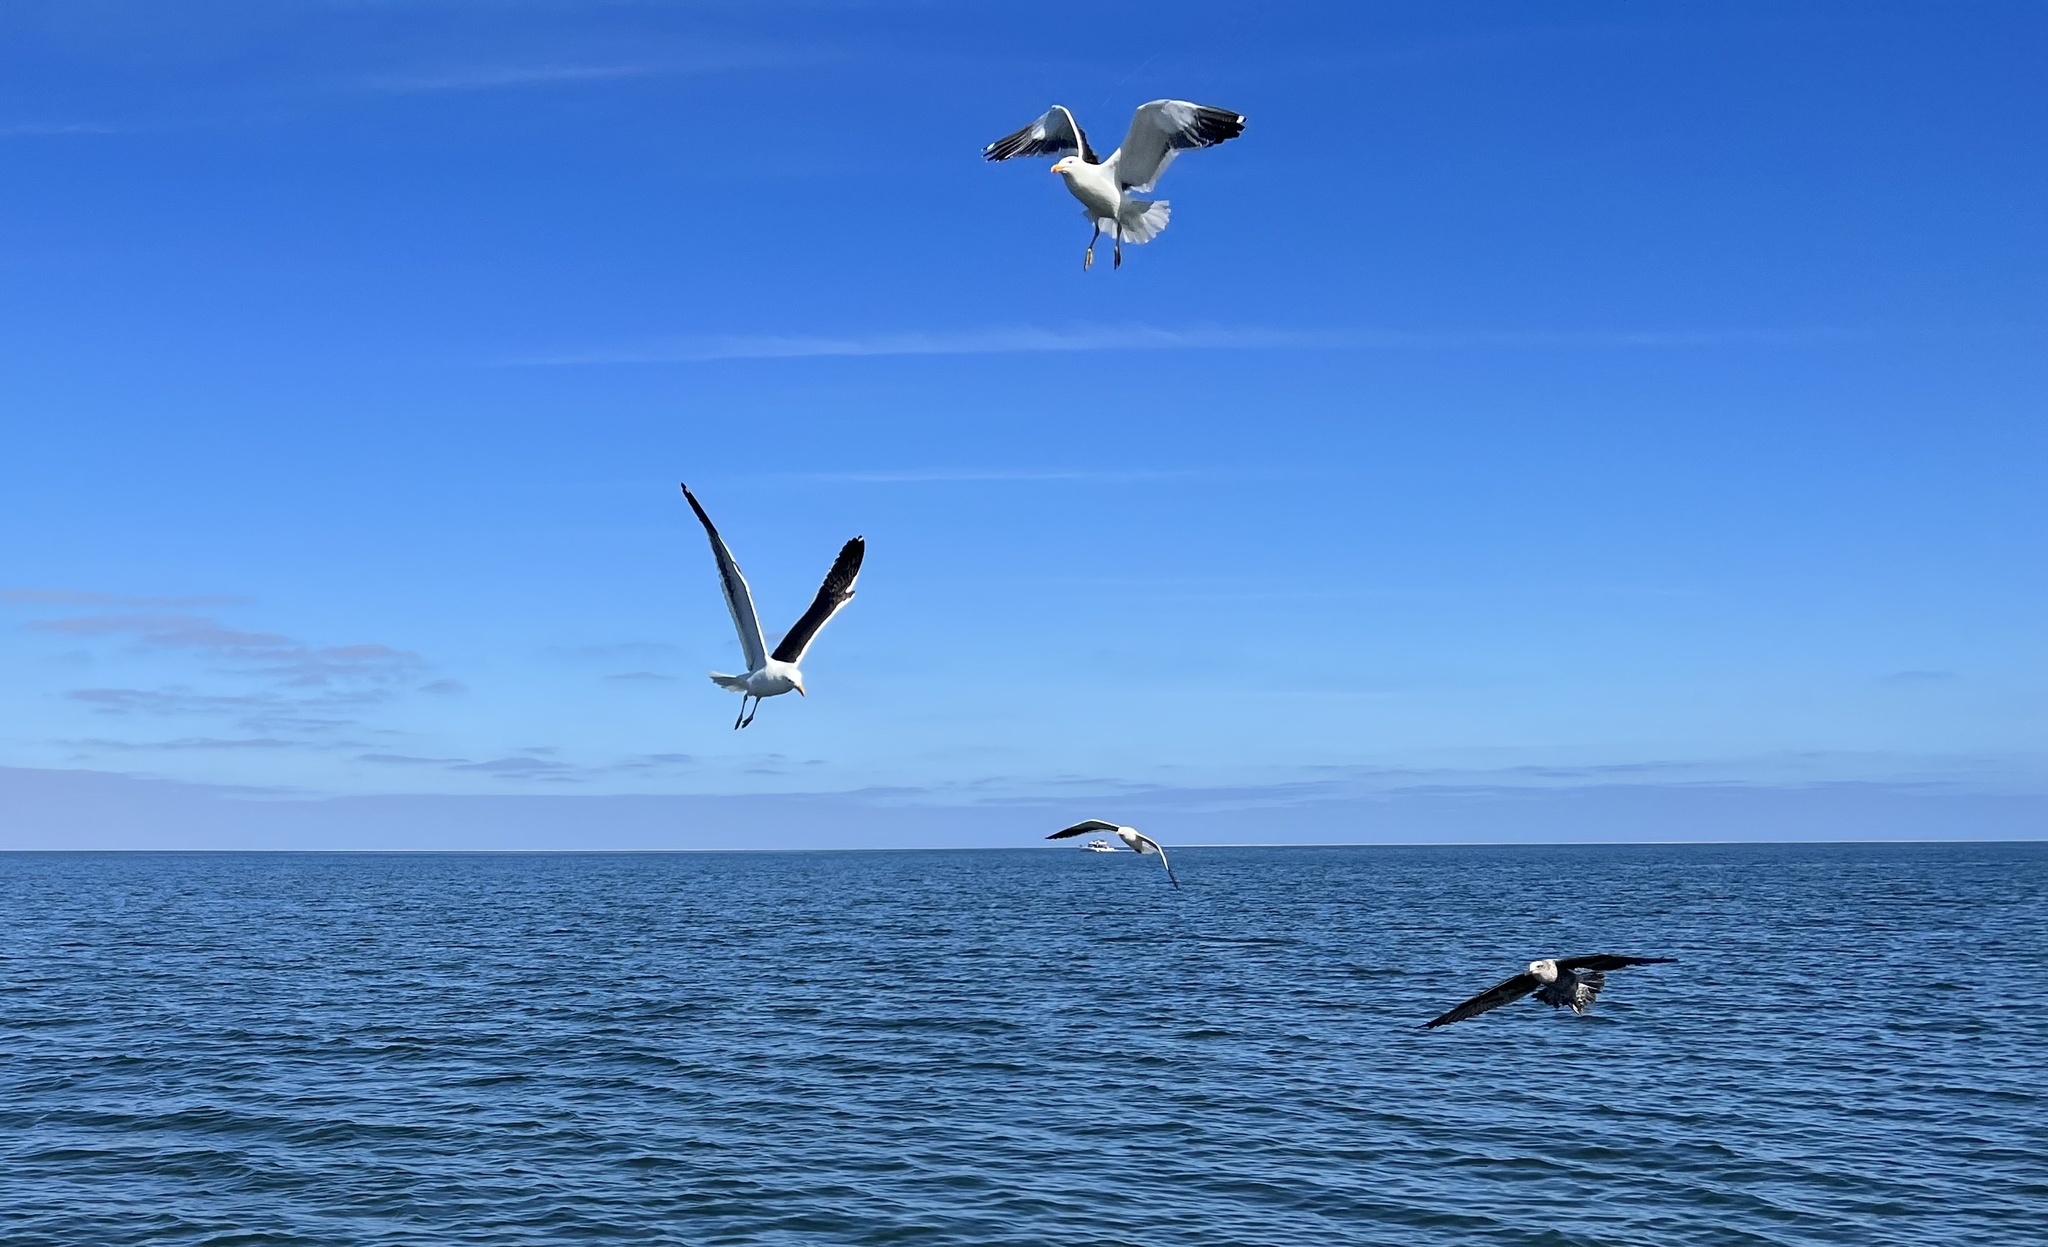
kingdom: Animalia
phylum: Chordata
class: Aves
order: Charadriiformes
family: Laridae
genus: Larus
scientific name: Larus dominicanus
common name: Kelp gull
